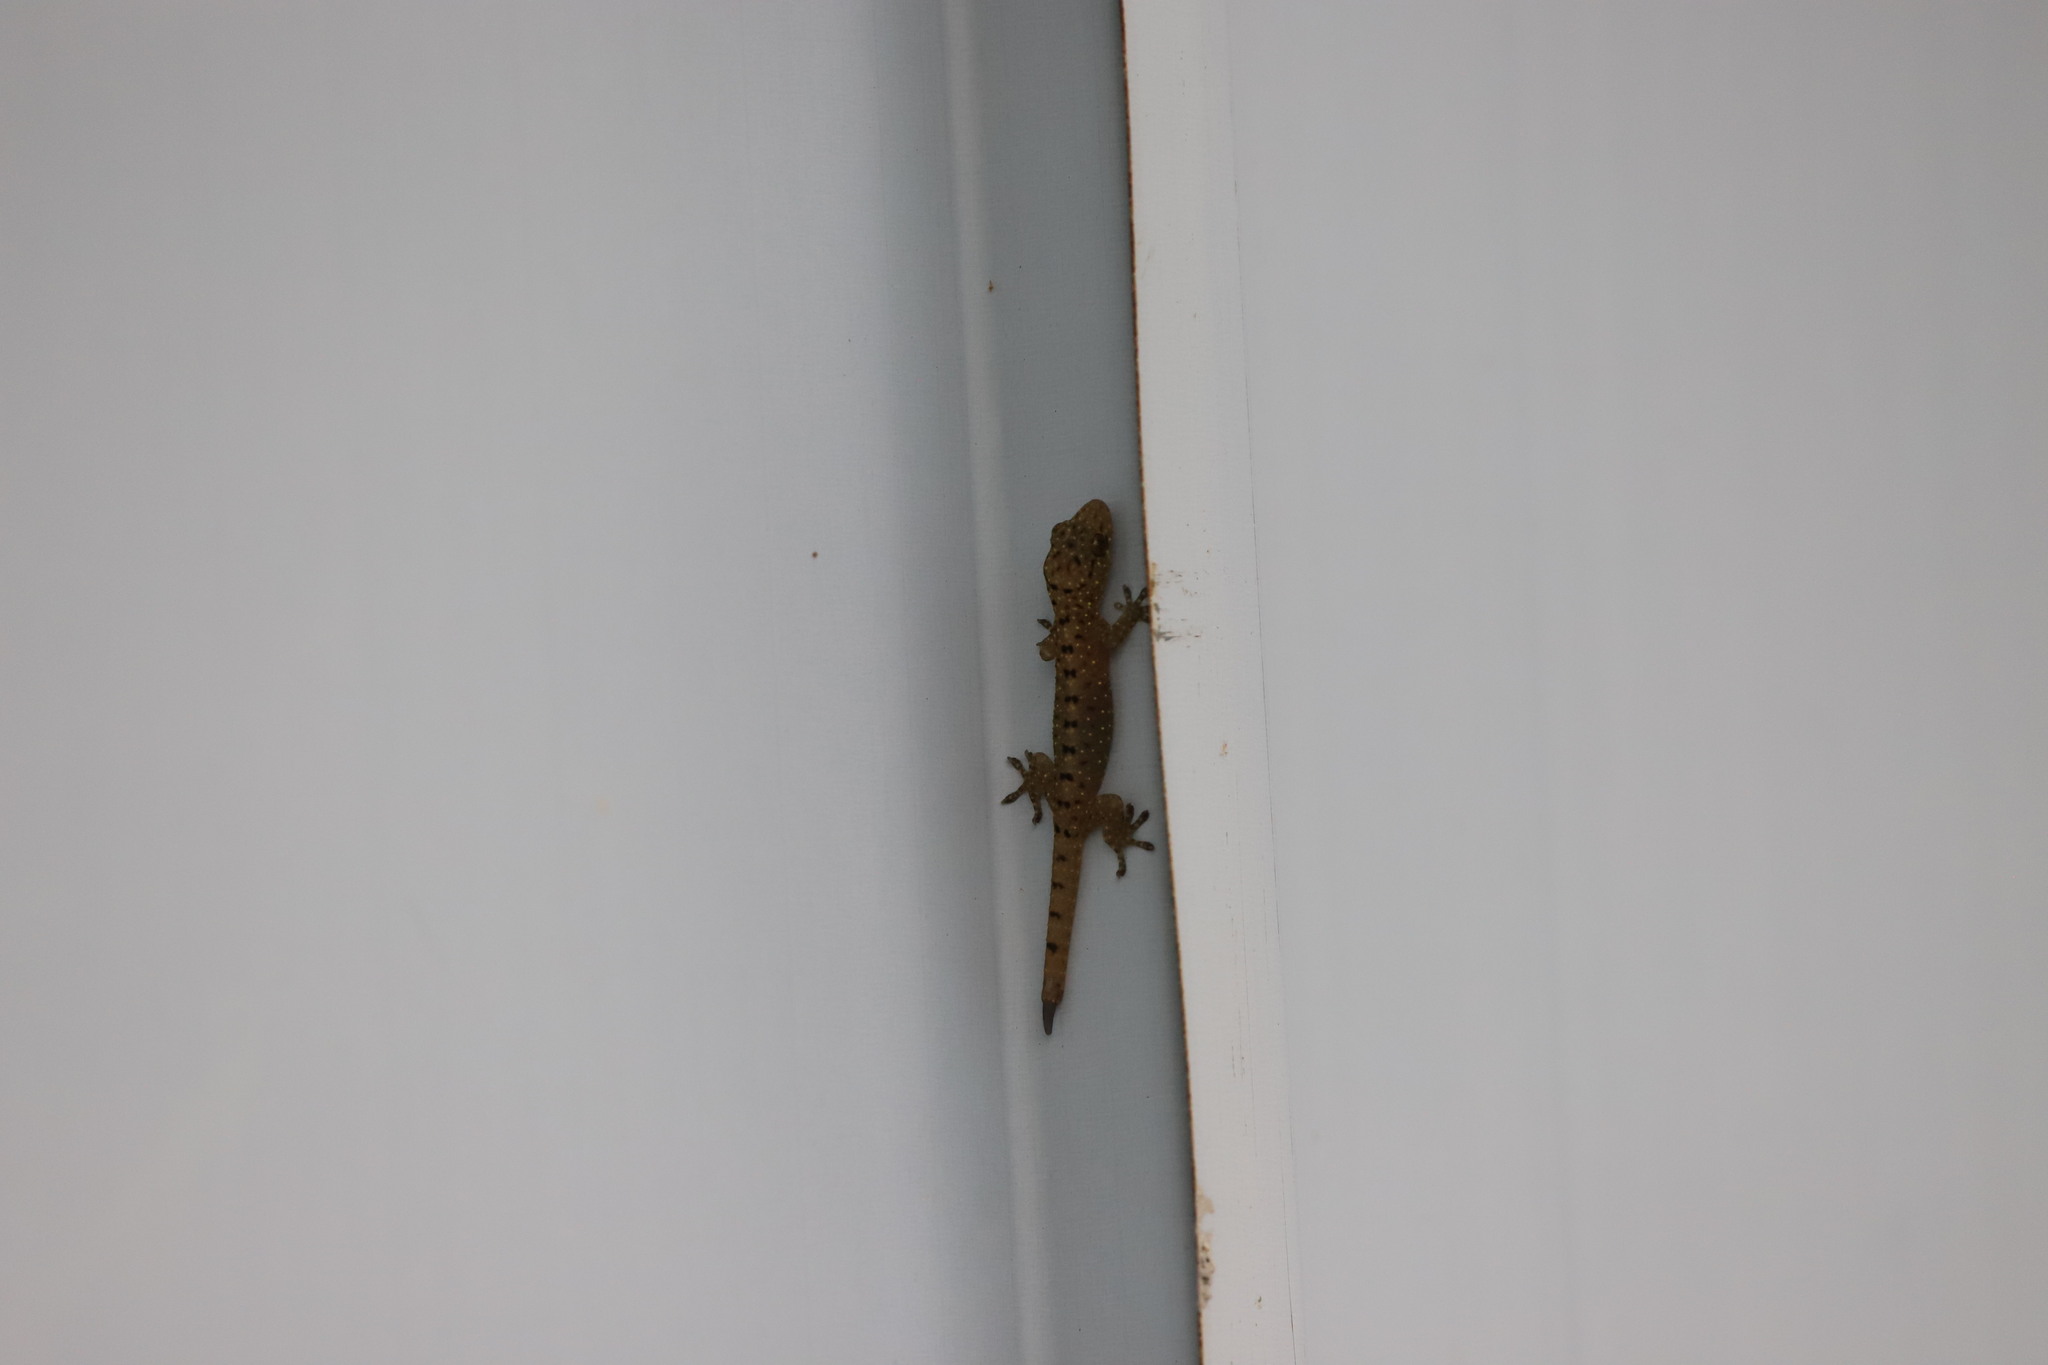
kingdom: Animalia
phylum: Chordata
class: Squamata
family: Gekkonidae
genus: Gekko
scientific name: Gekko monarchus
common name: Spotted house gecko
